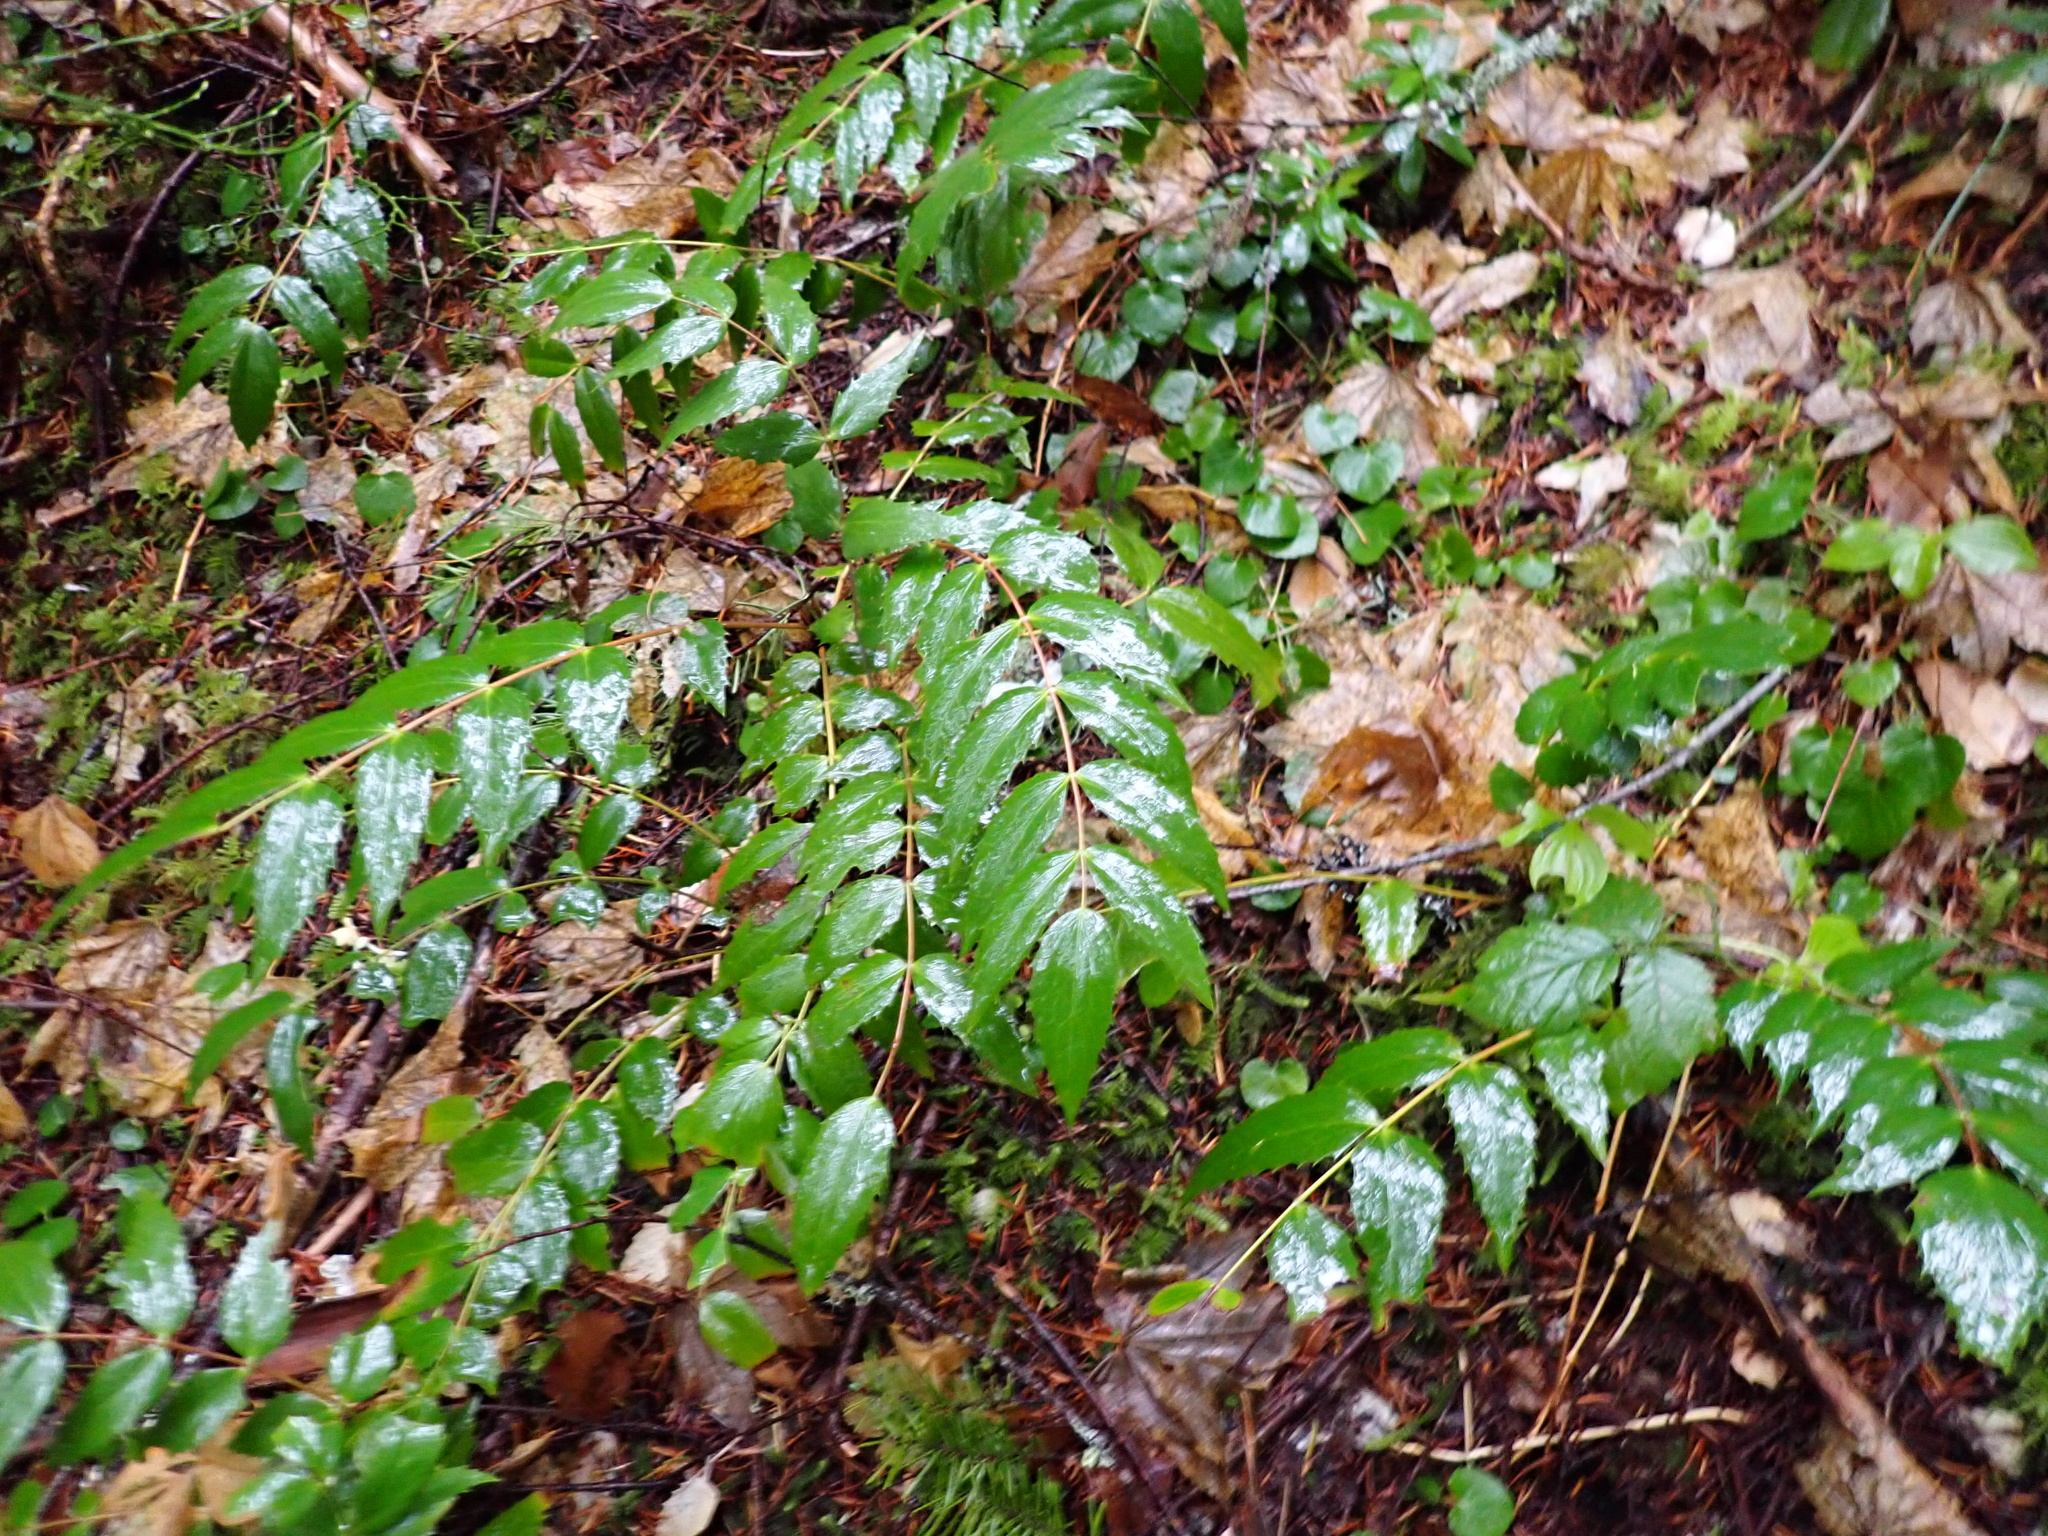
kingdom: Plantae
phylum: Tracheophyta
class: Magnoliopsida
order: Ranunculales
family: Berberidaceae
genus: Mahonia
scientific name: Mahonia nervosa
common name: Cascade oregon-grape
